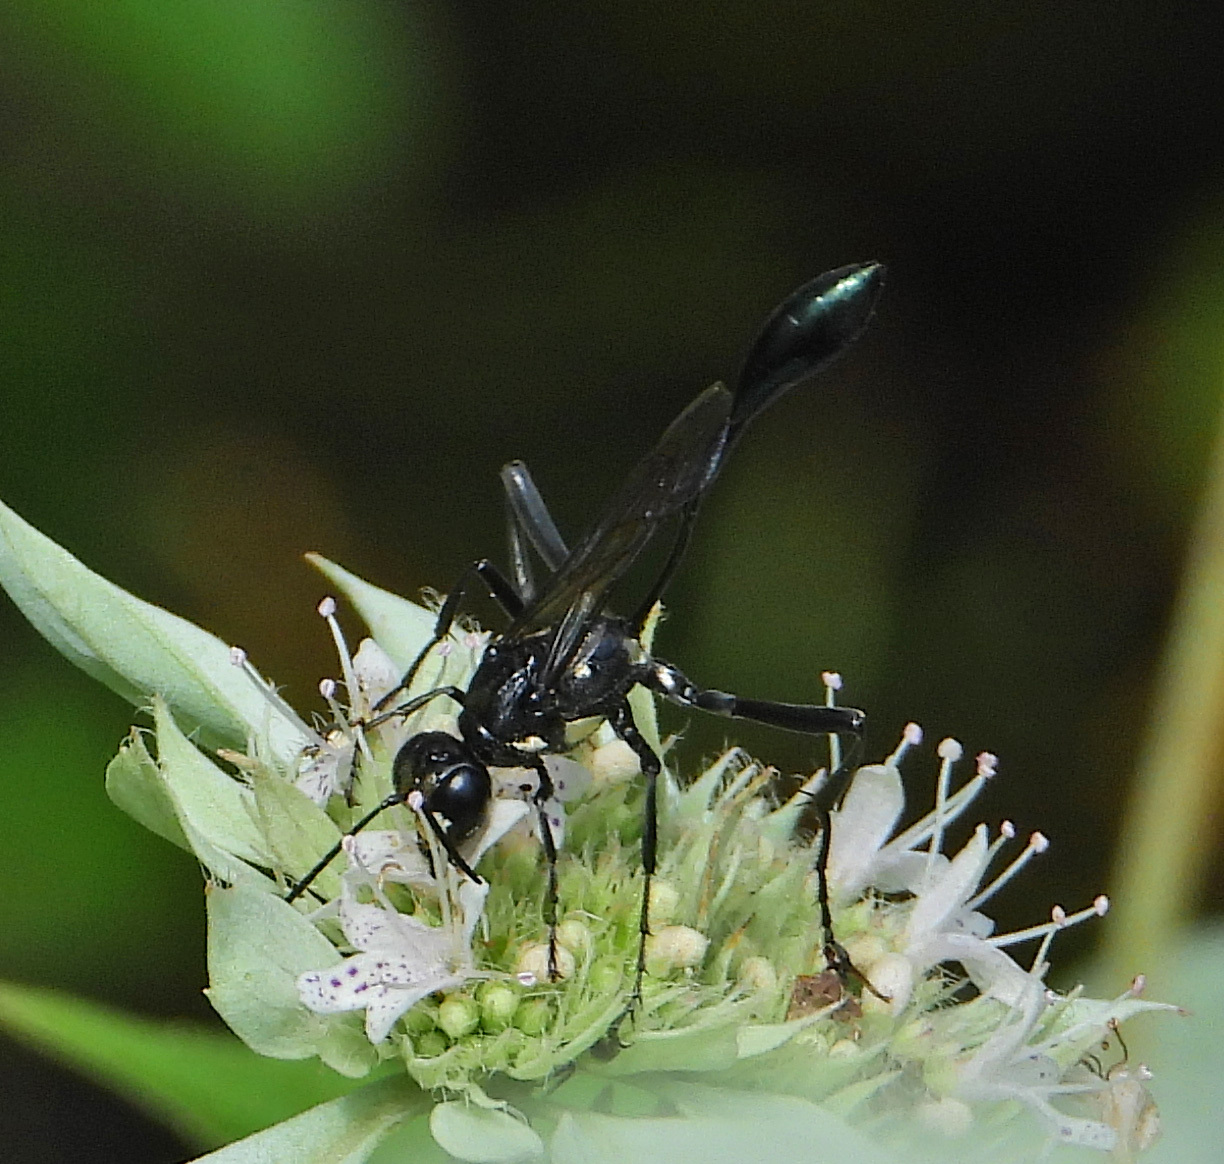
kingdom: Animalia
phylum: Arthropoda
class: Insecta
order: Hymenoptera
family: Sphecidae
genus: Eremnophila
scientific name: Eremnophila aureonotata
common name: Gold-marked thread-waisted wasp
